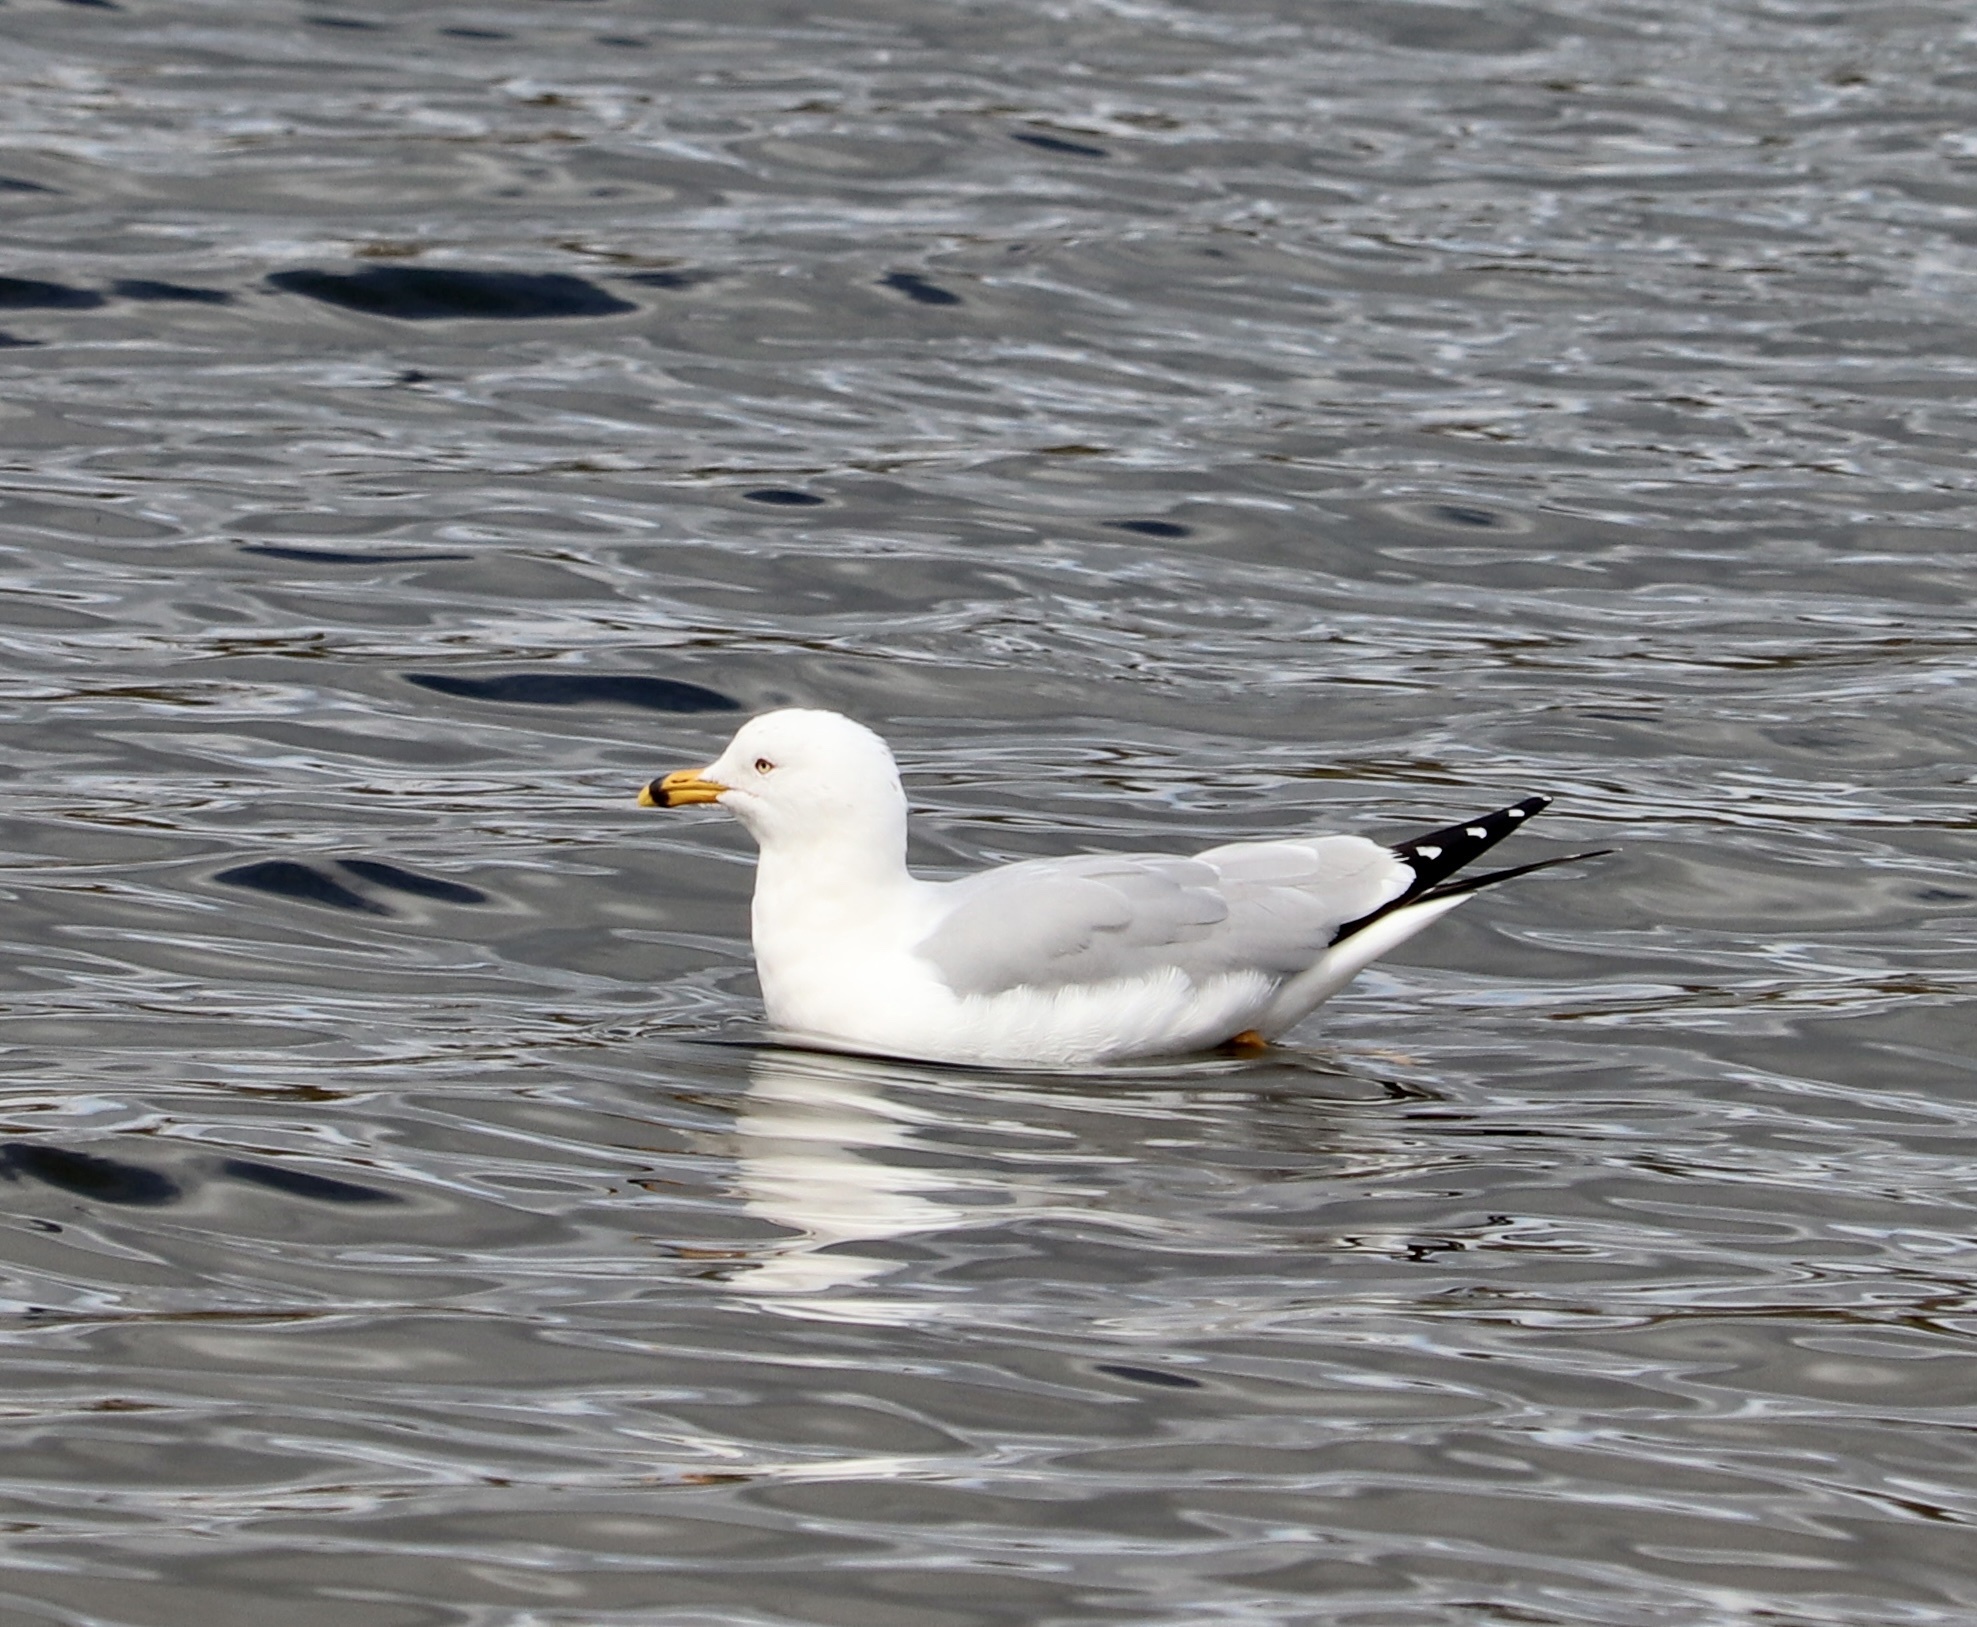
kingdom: Animalia
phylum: Chordata
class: Aves
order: Charadriiformes
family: Laridae
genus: Larus
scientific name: Larus delawarensis
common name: Ring-billed gull
